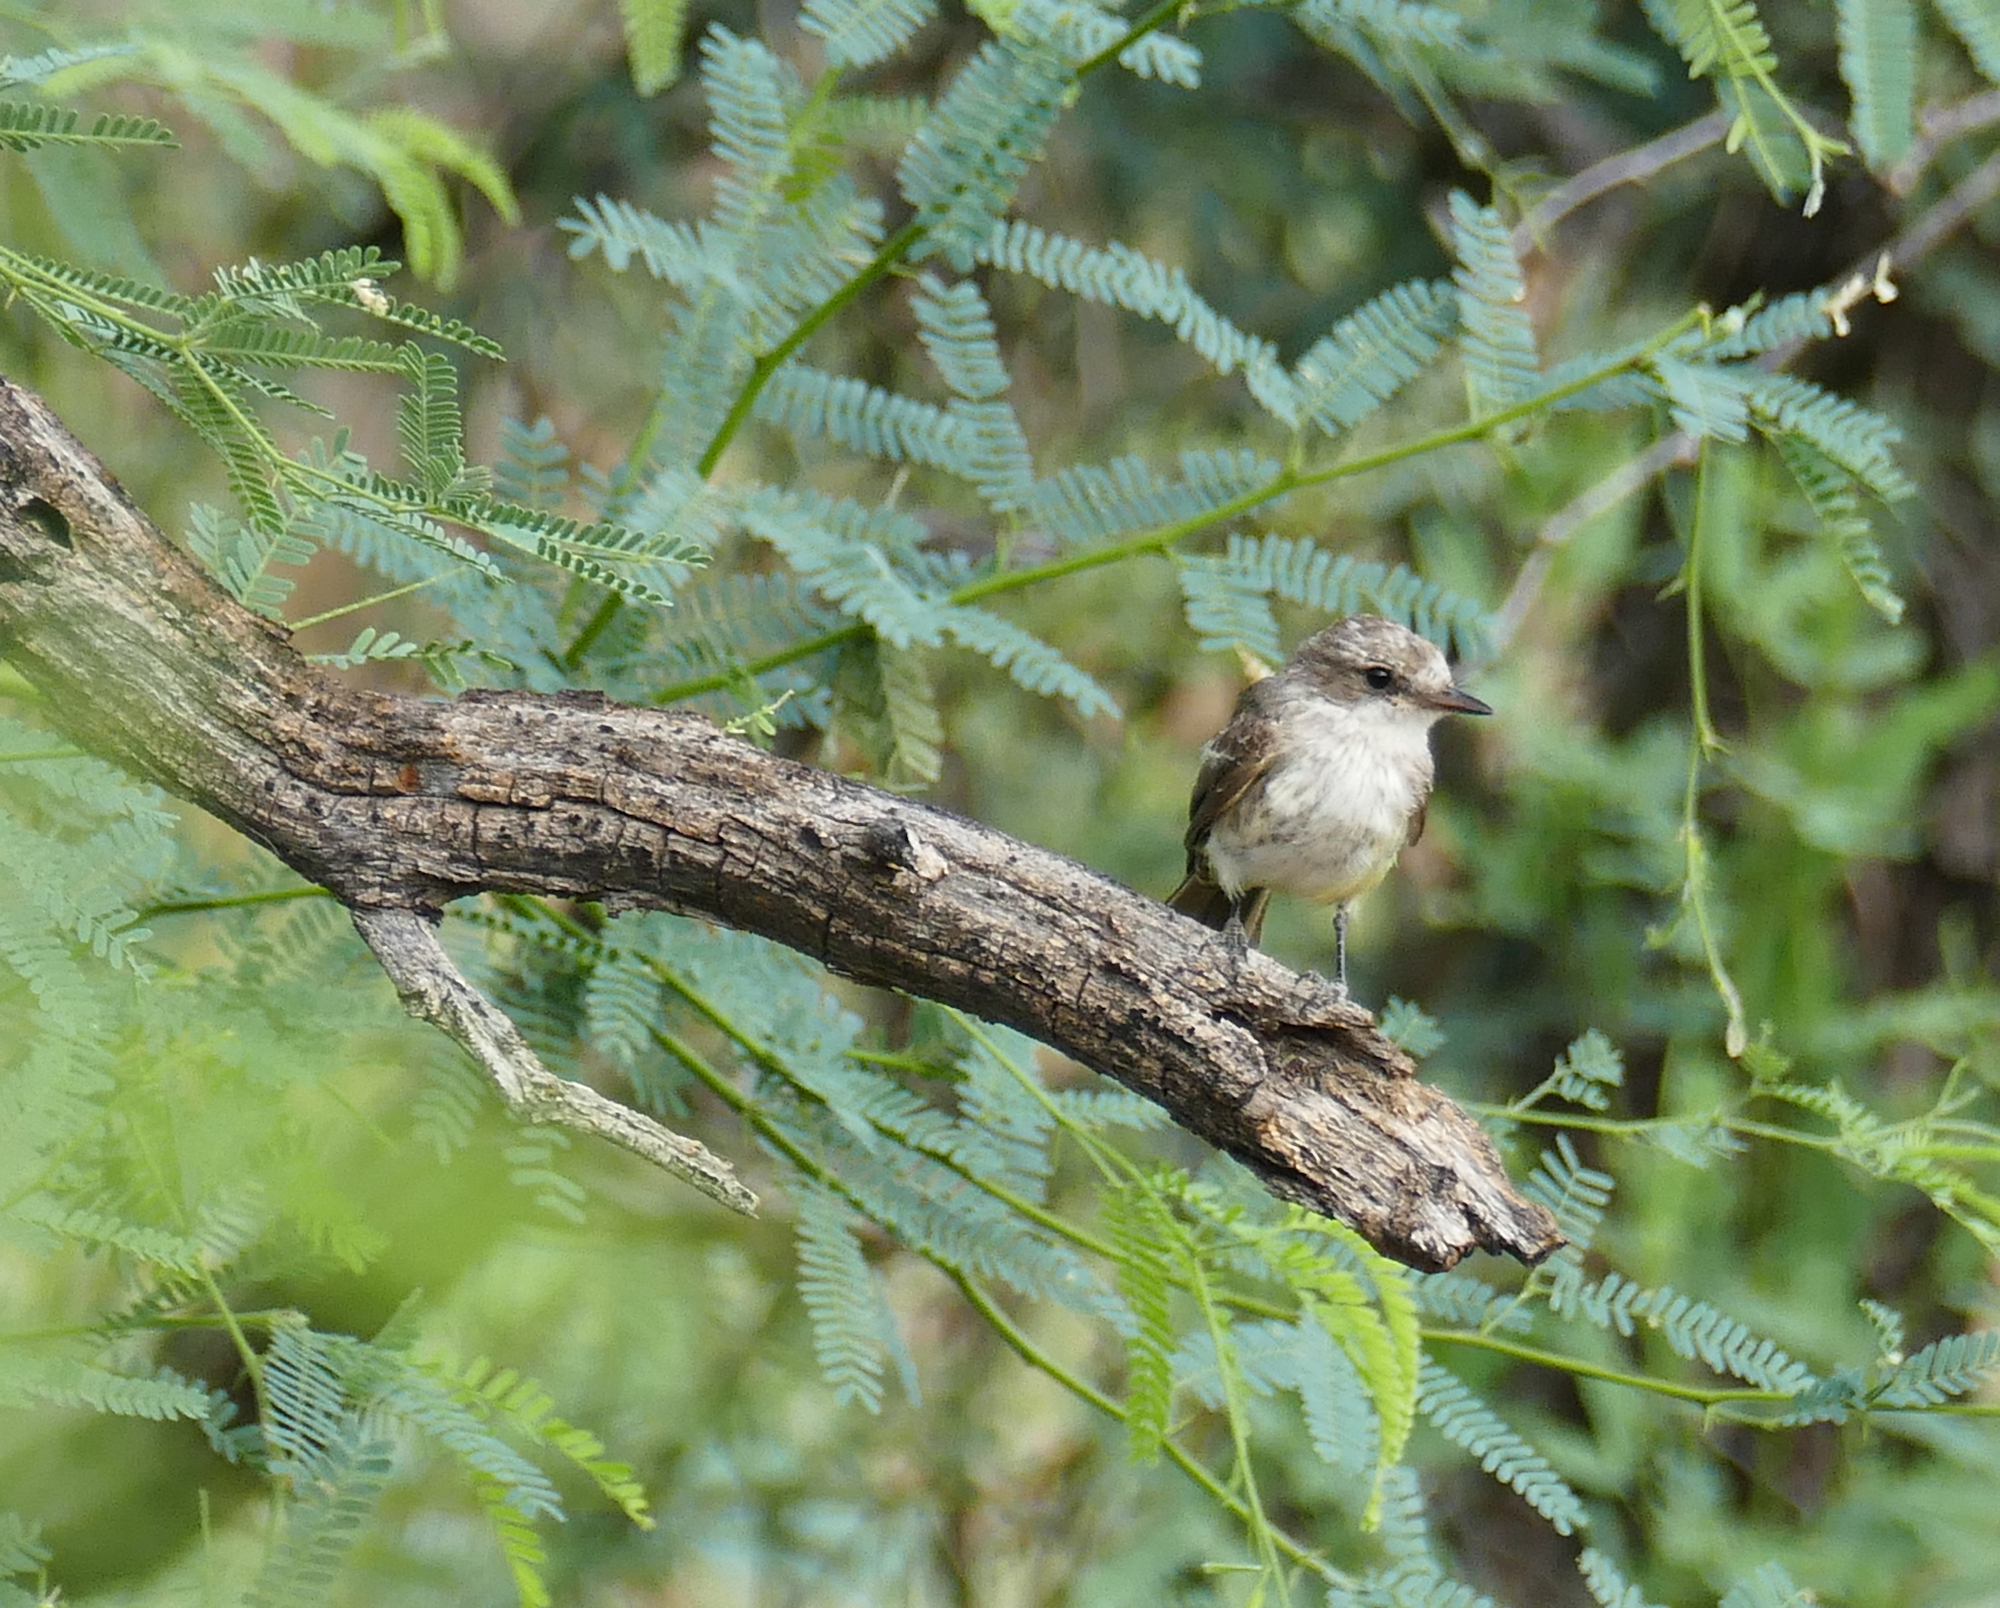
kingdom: Animalia
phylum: Chordata
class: Aves
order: Passeriformes
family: Tyrannidae
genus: Pyrocephalus
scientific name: Pyrocephalus rubinus
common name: Vermilion flycatcher
